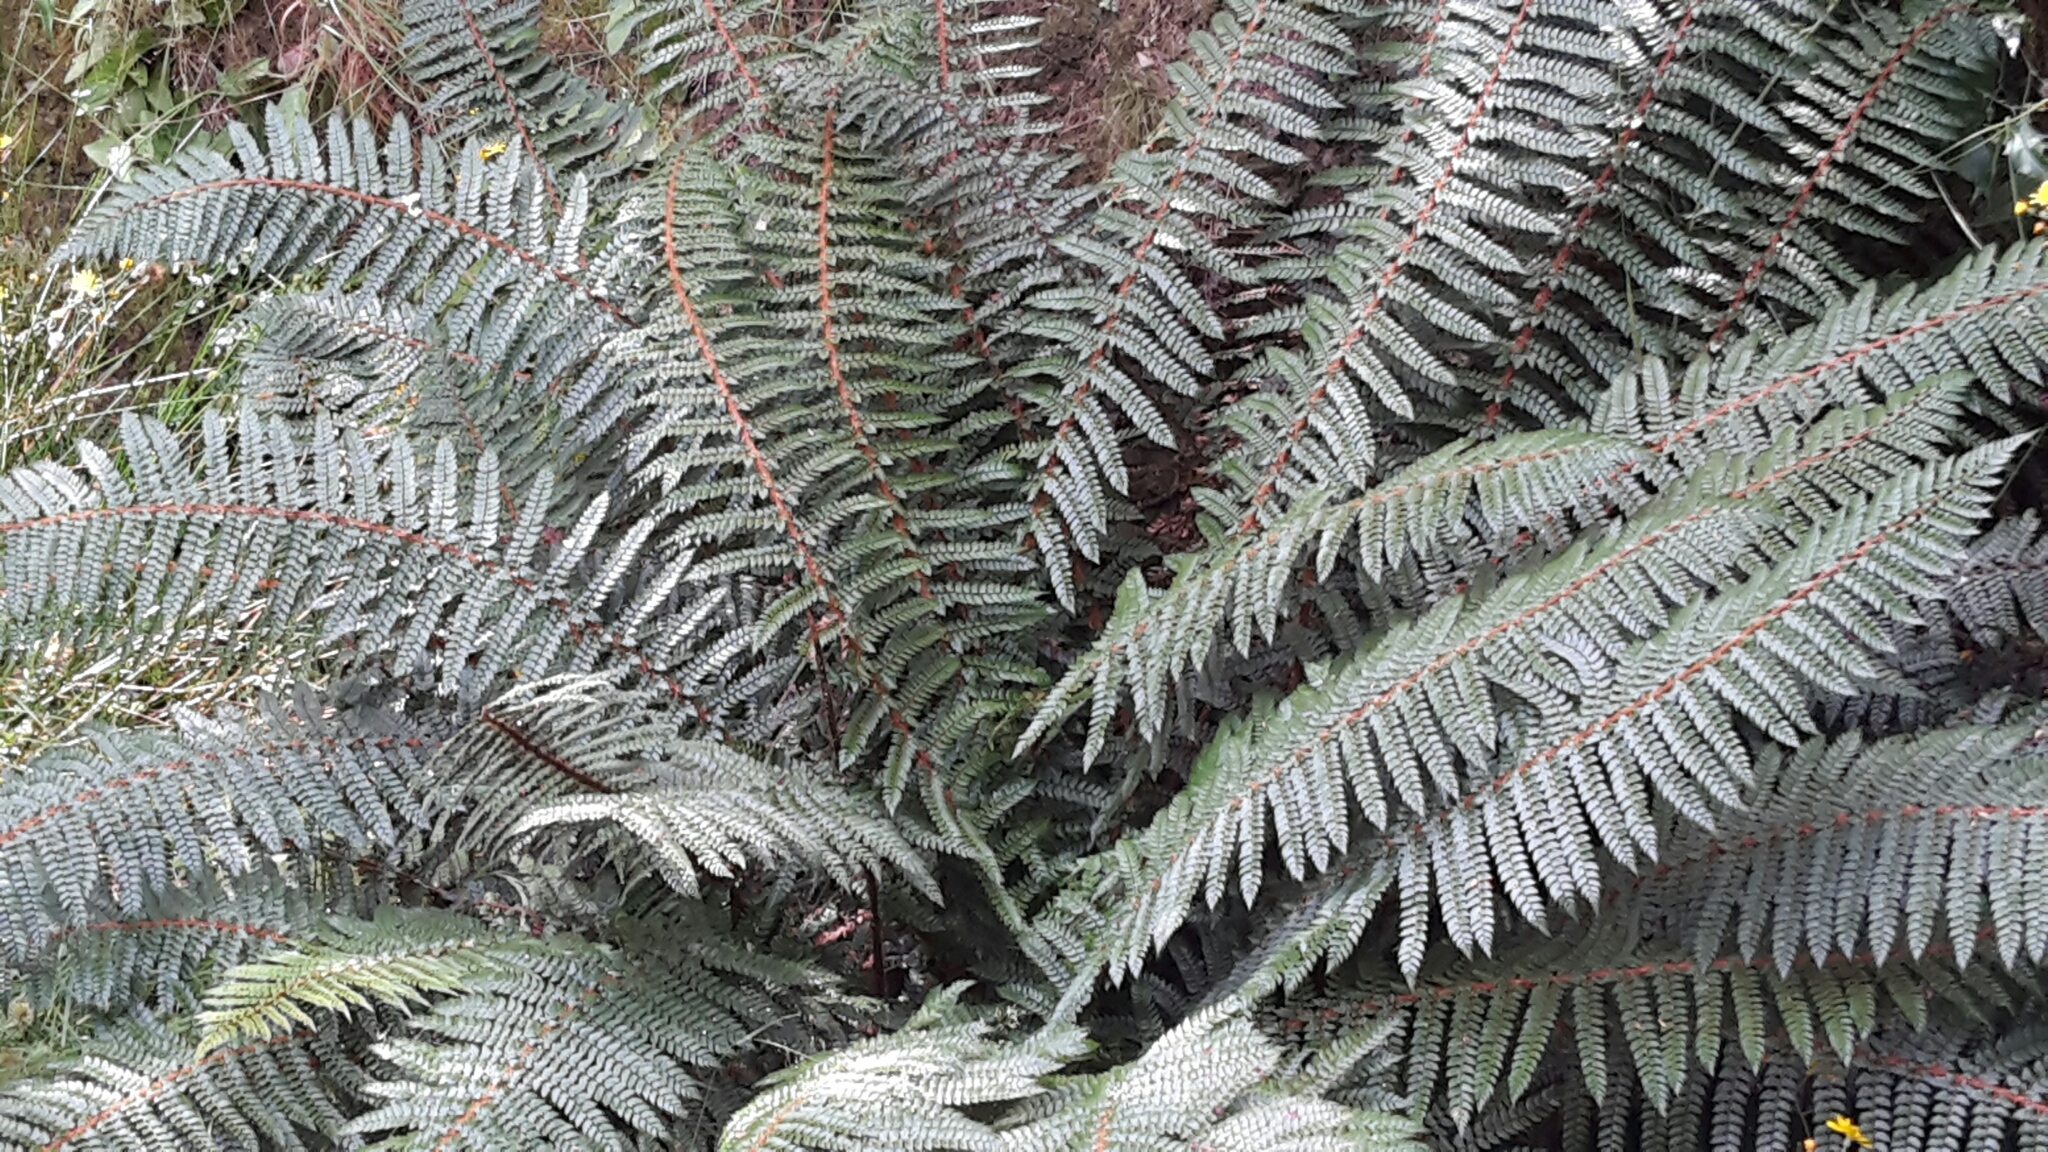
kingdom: Plantae
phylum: Tracheophyta
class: Polypodiopsida
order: Polypodiales
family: Dryopteridaceae
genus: Polystichum
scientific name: Polystichum vestitum
